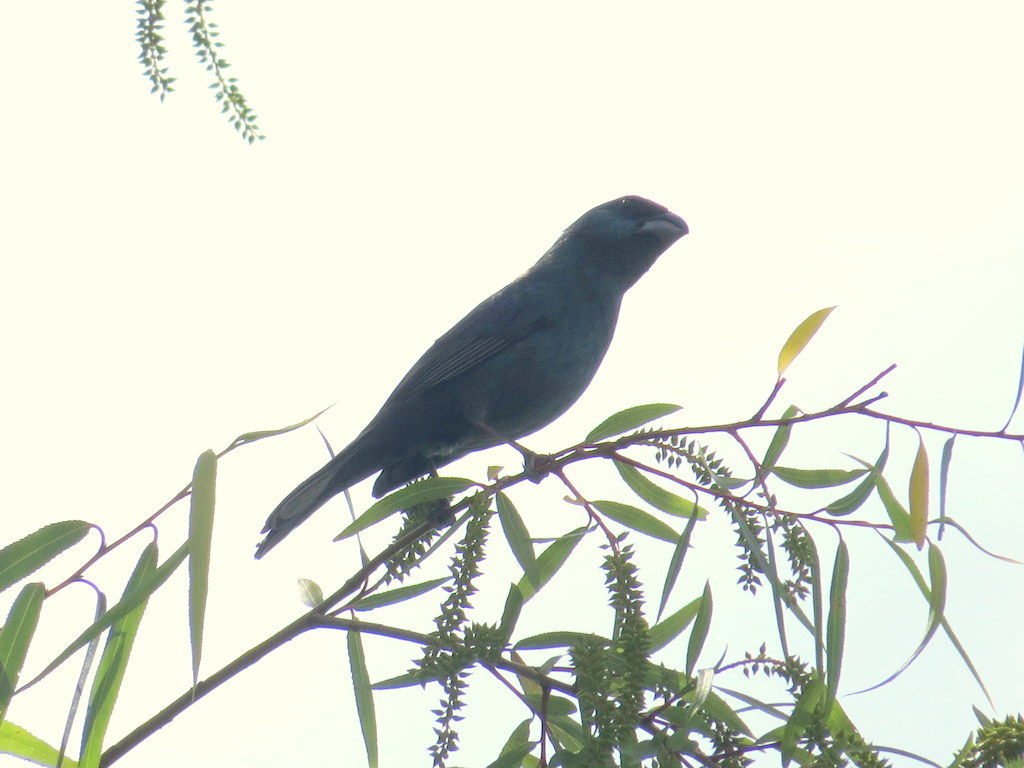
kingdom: Animalia
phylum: Chordata
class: Aves
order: Passeriformes
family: Cardinalidae
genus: Cyanoloxia
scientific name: Cyanoloxia glaucocaerulea
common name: Glaucous-blue grosbeak
